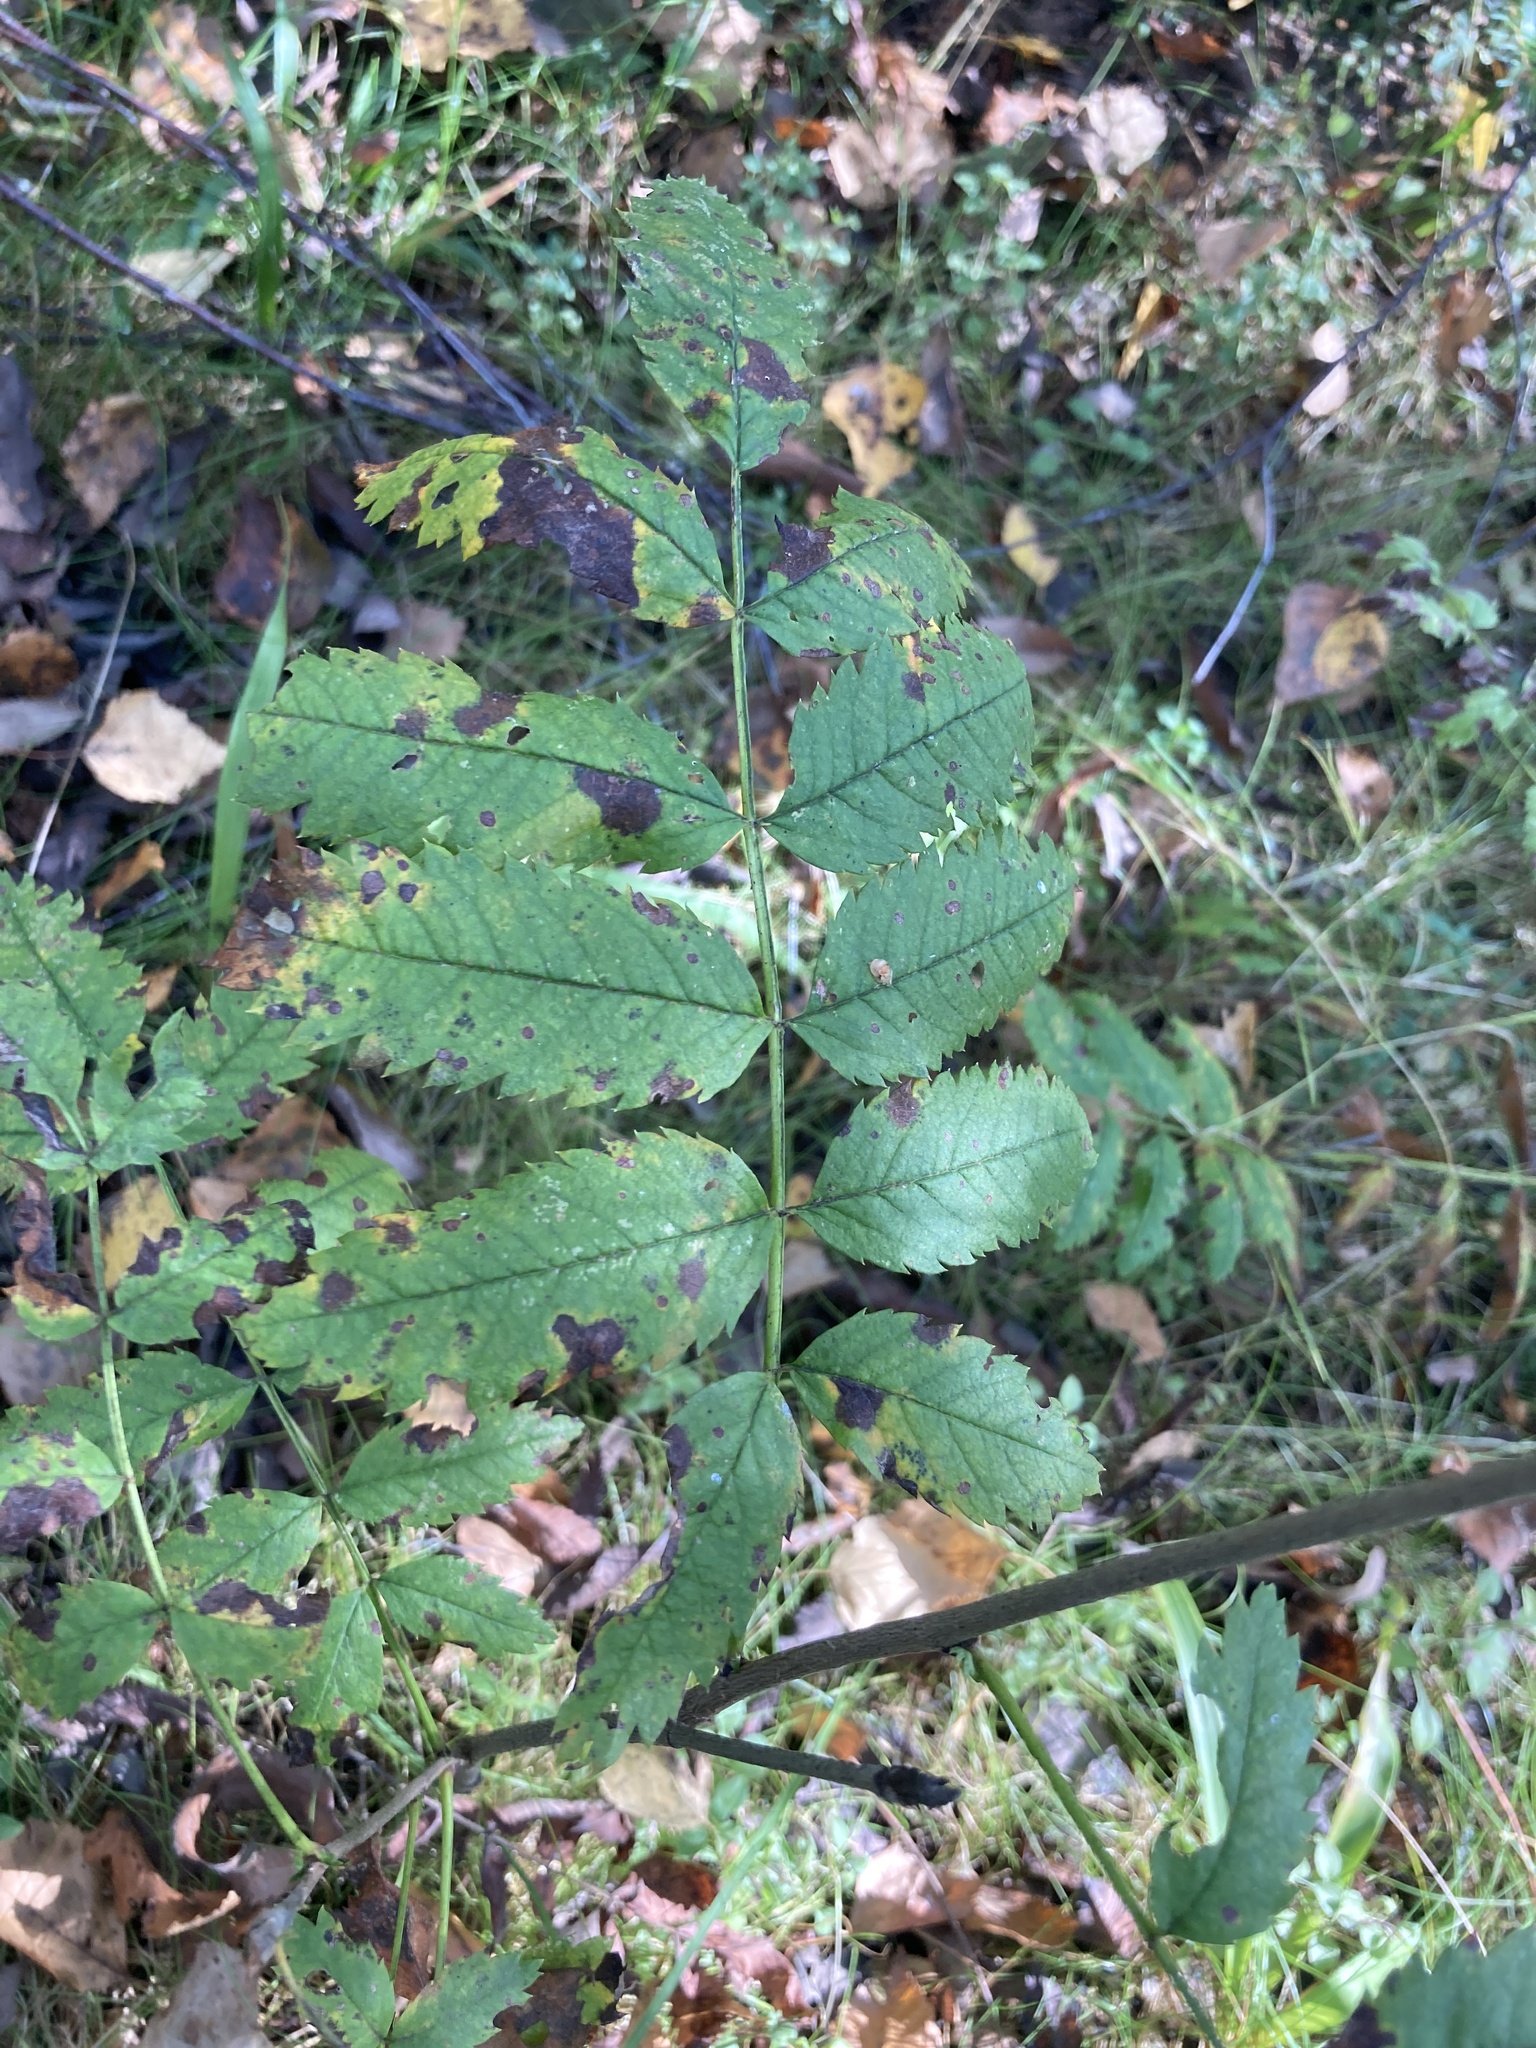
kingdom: Plantae
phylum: Tracheophyta
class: Magnoliopsida
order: Rosales
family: Rosaceae
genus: Sorbus
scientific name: Sorbus aucuparia
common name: Rowan
